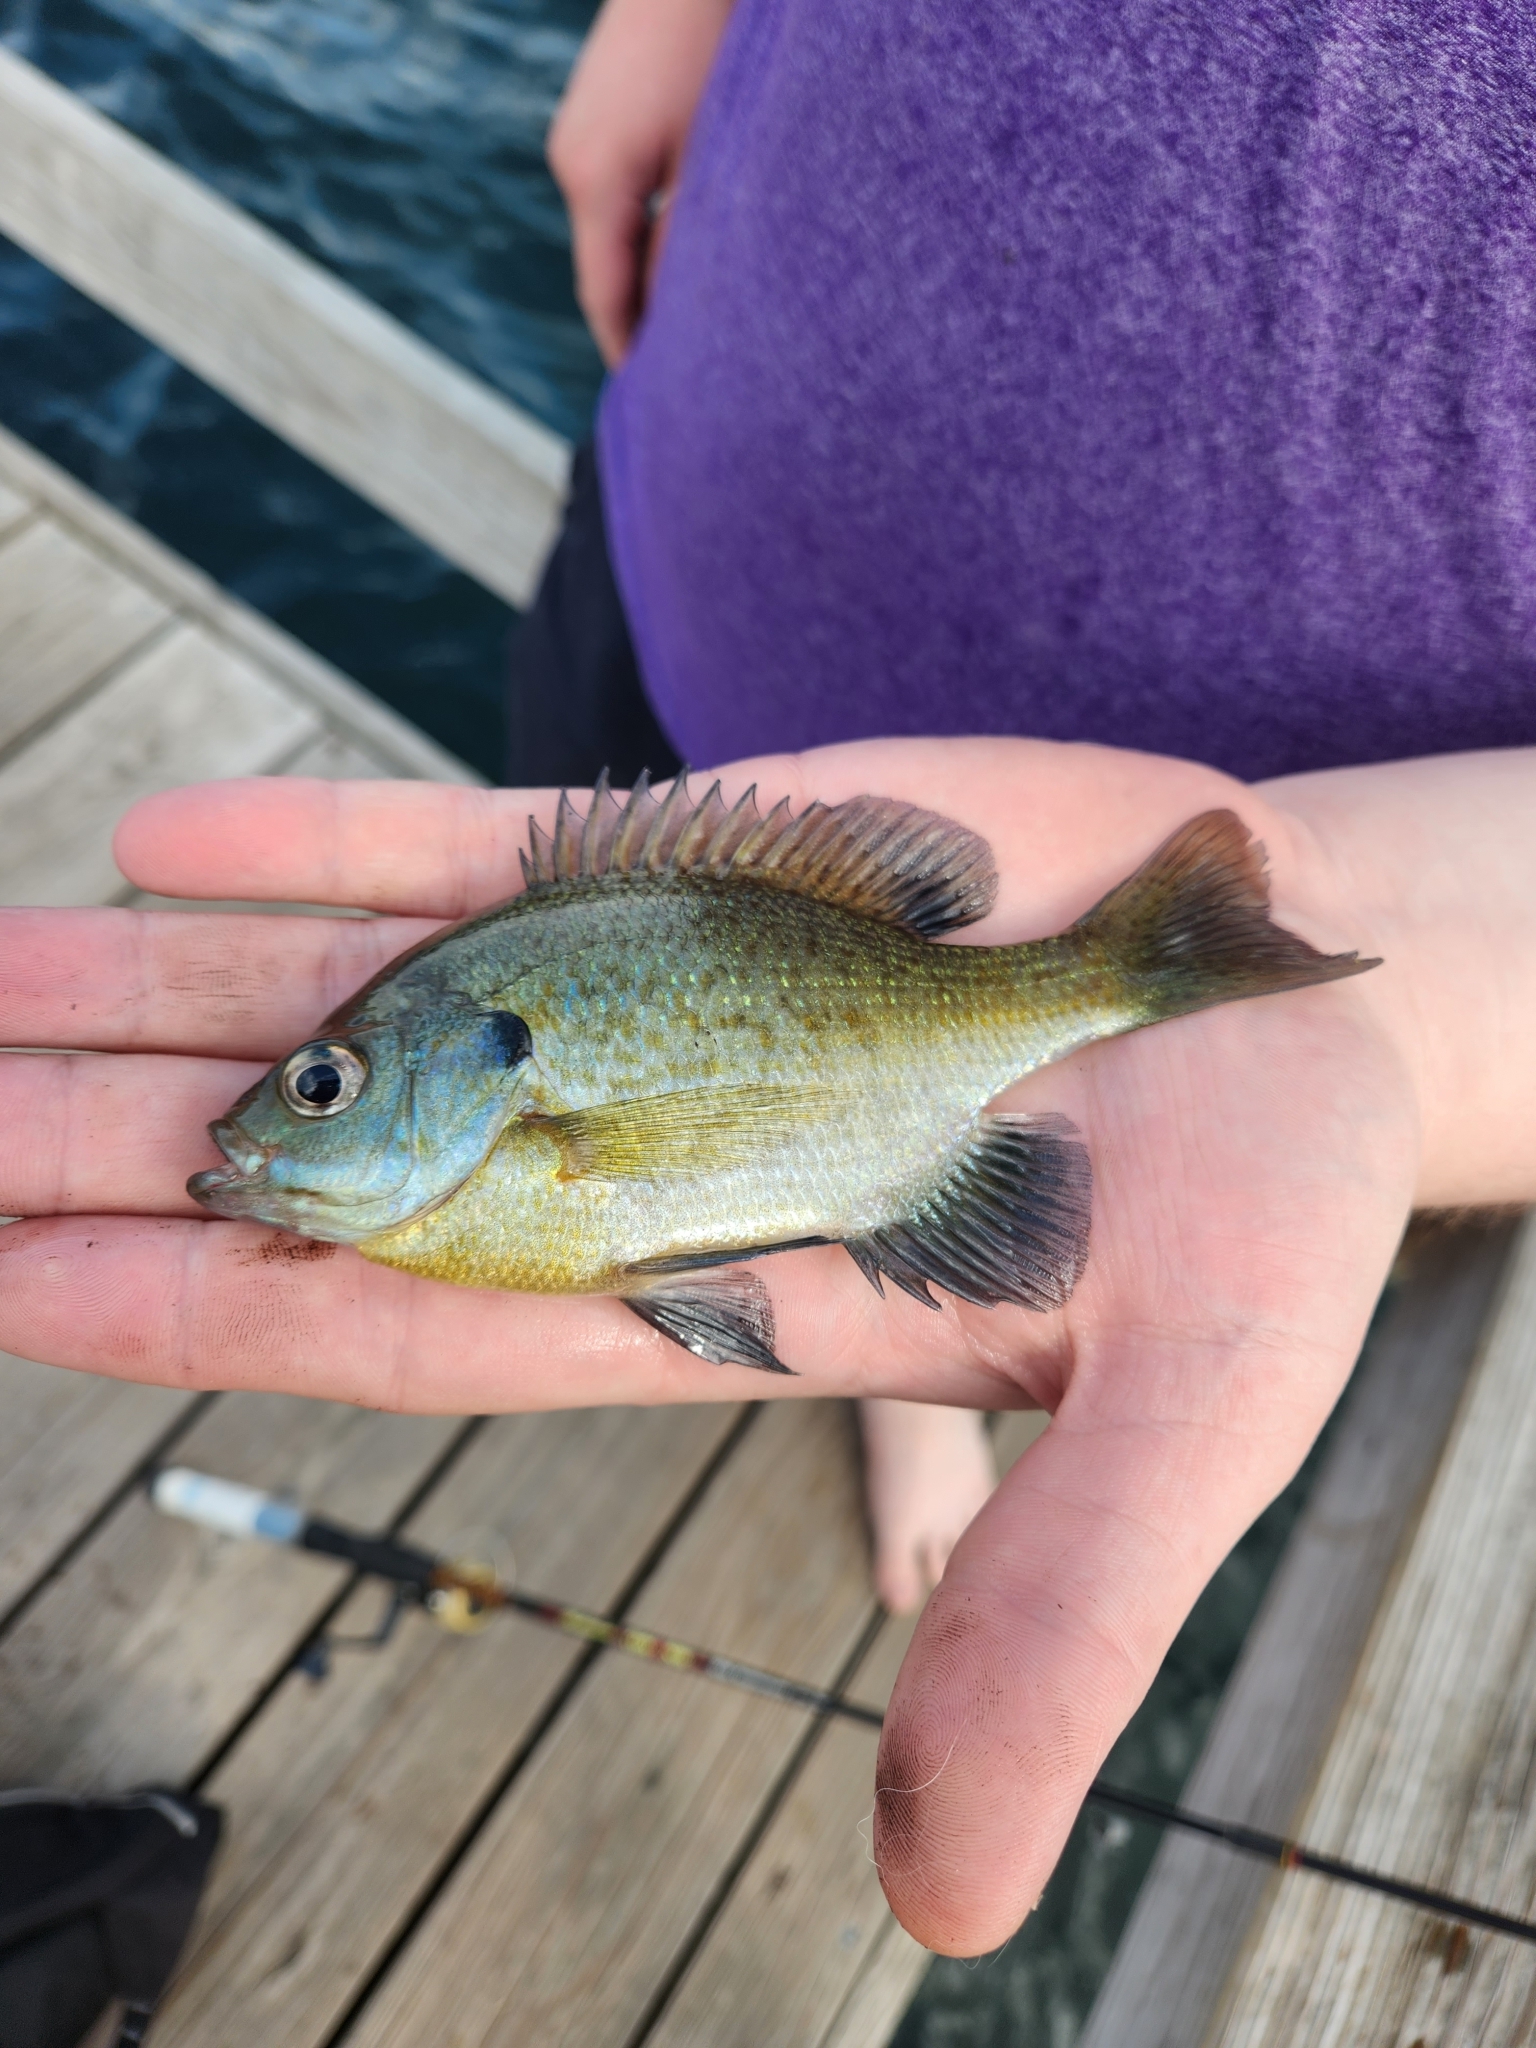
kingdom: Animalia
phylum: Chordata
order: Perciformes
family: Centrarchidae
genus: Lepomis
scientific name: Lepomis macrochirus
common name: Bluegill
